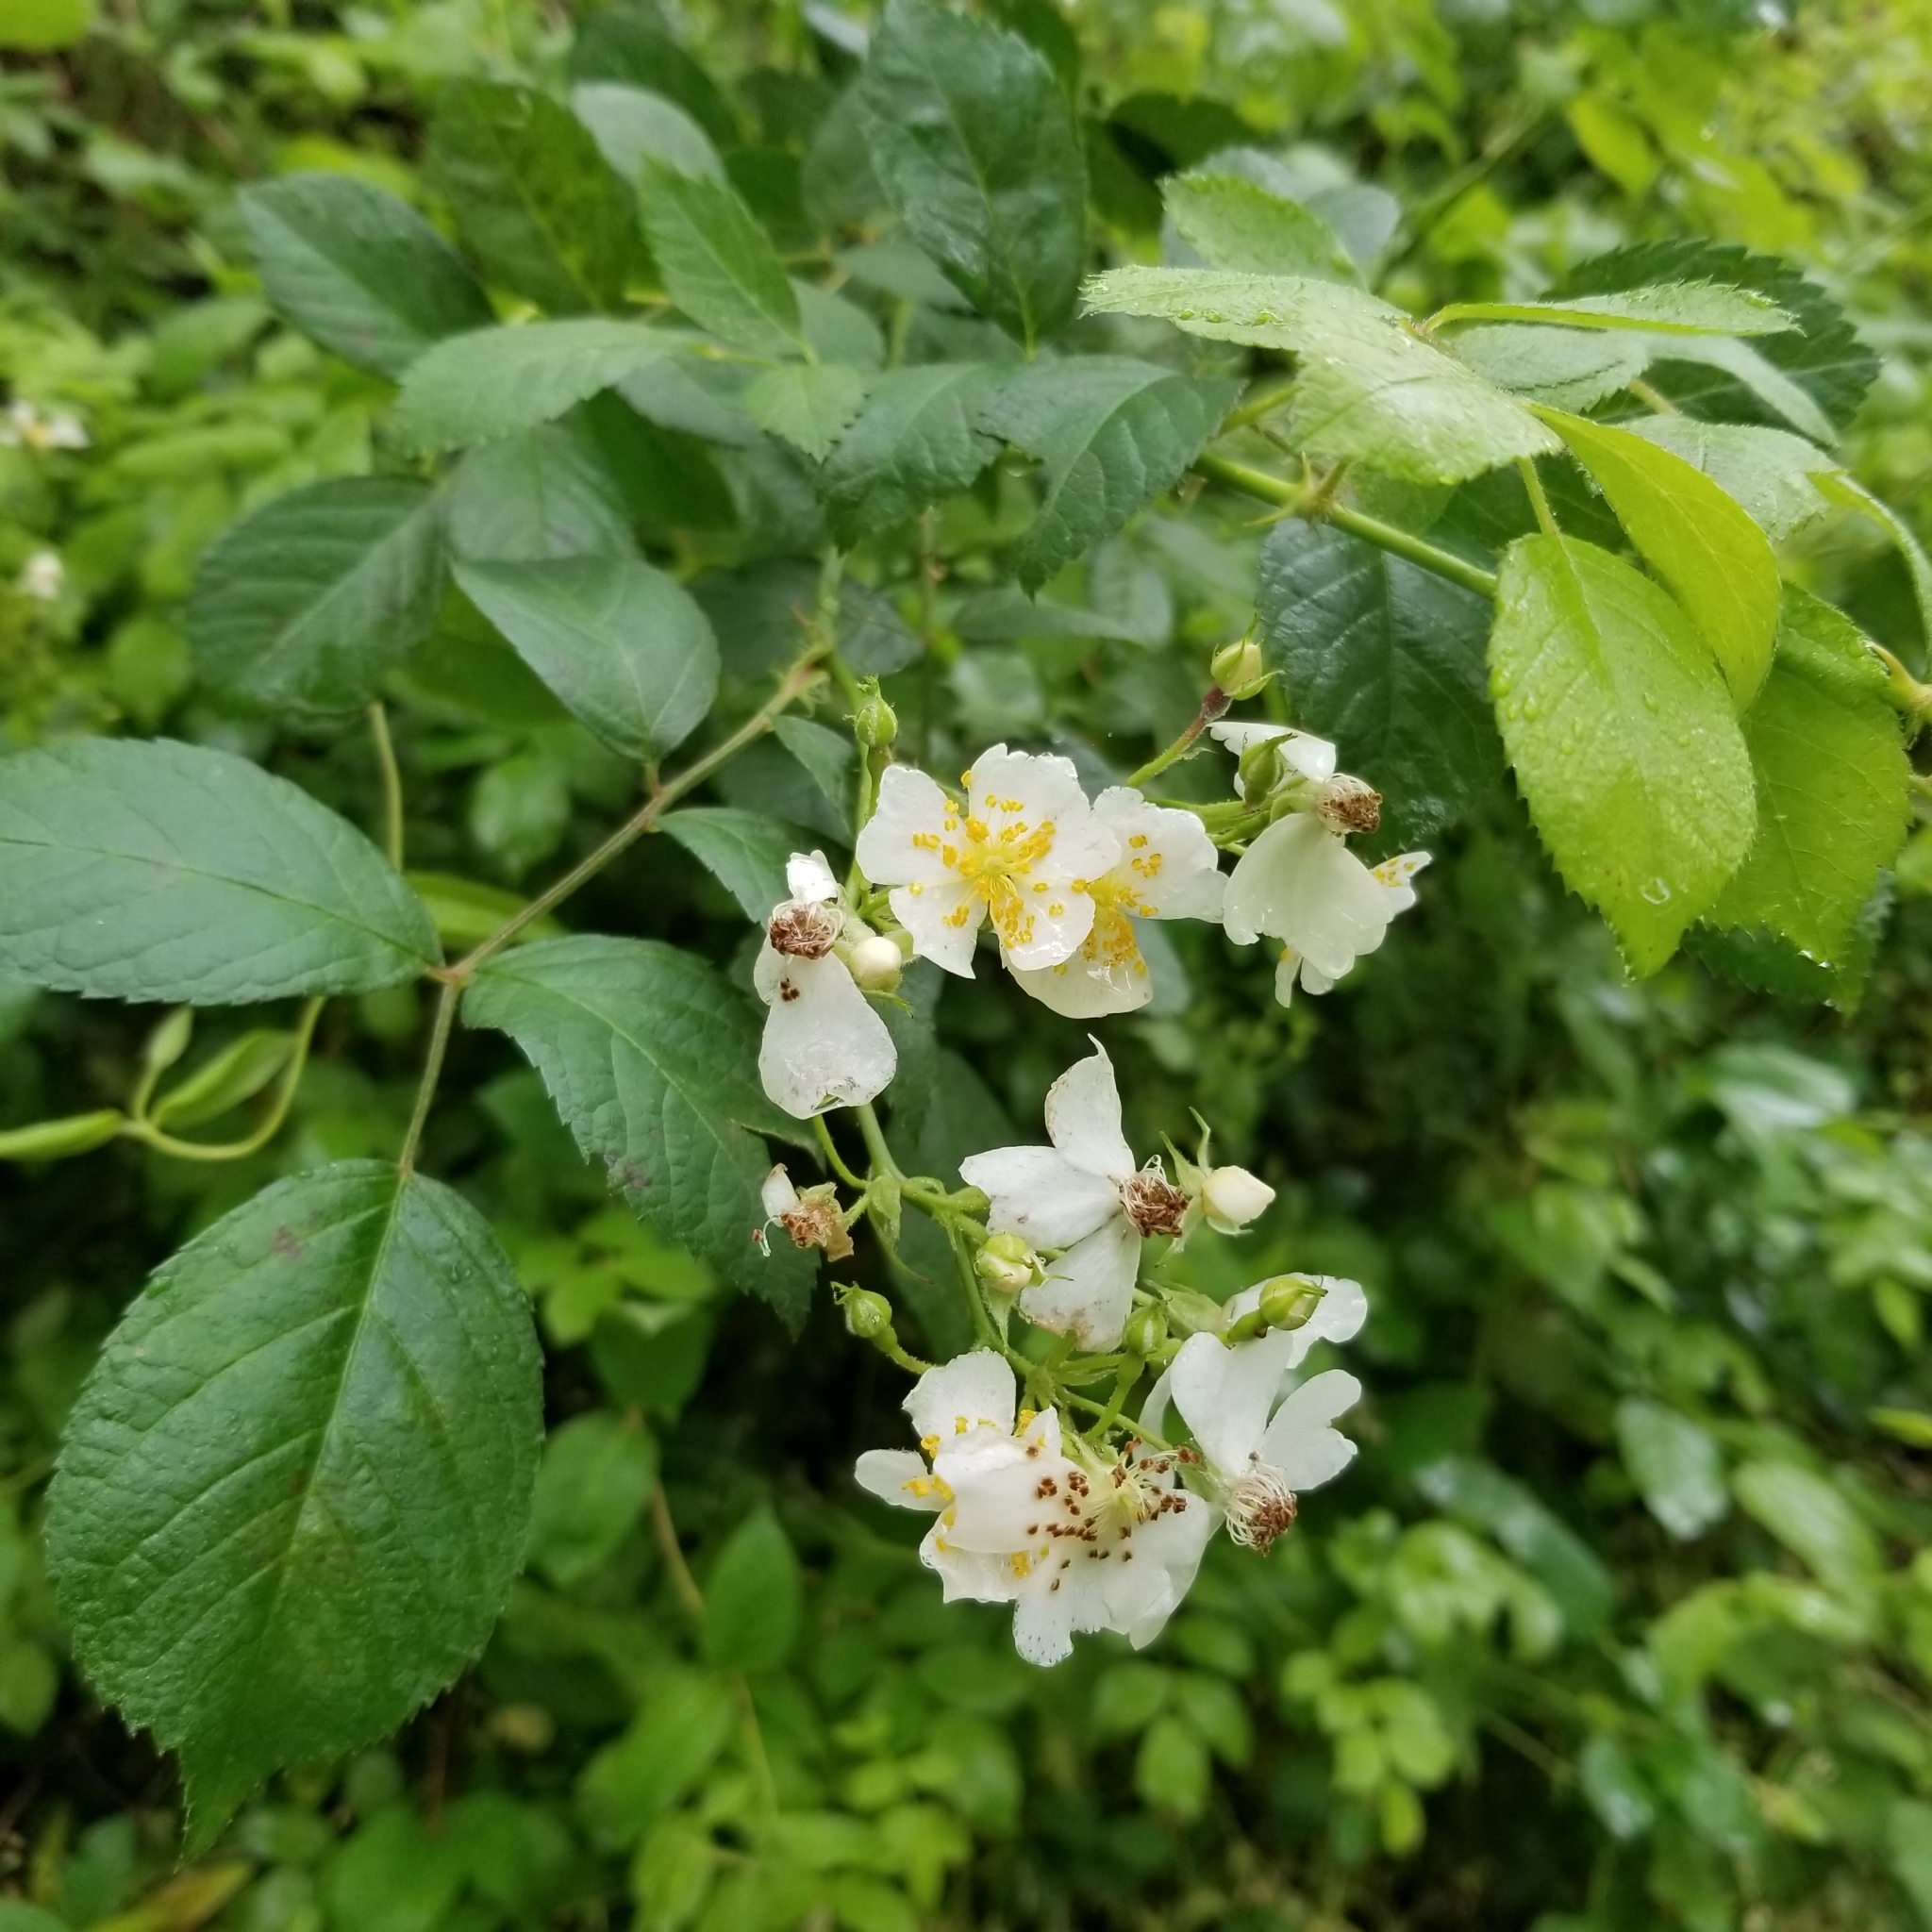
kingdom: Plantae
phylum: Tracheophyta
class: Magnoliopsida
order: Rosales
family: Rosaceae
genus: Rosa
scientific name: Rosa multiflora
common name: Multiflora rose
